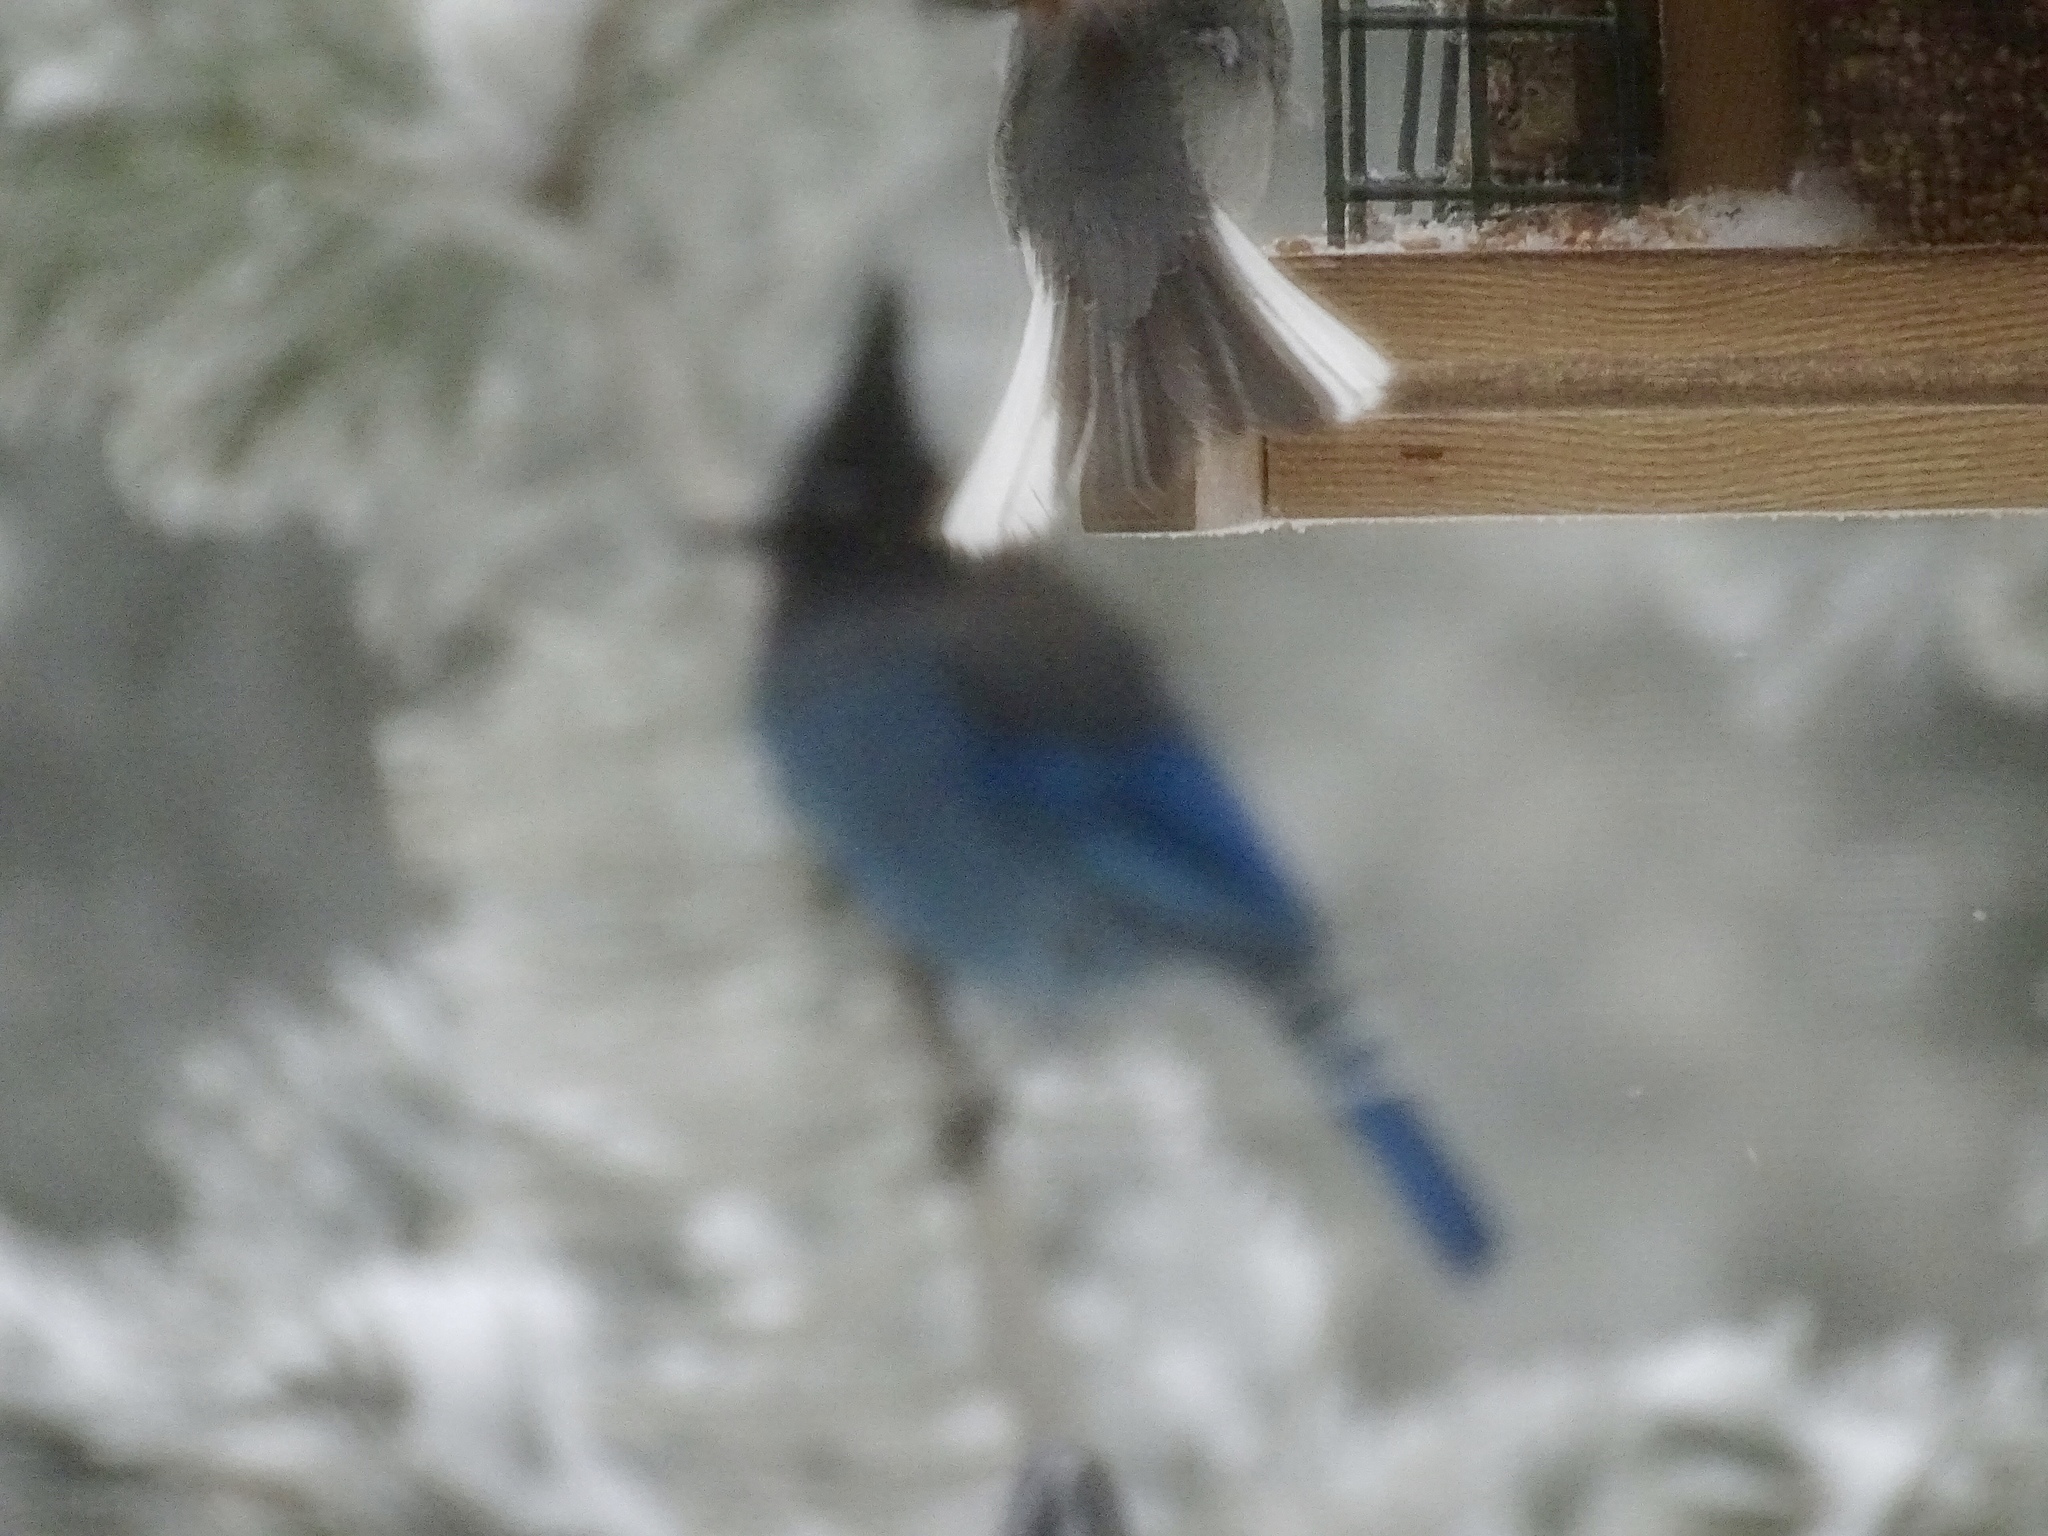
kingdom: Animalia
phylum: Chordata
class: Aves
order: Passeriformes
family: Corvidae
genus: Cyanocitta
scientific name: Cyanocitta stelleri
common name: Steller's jay
